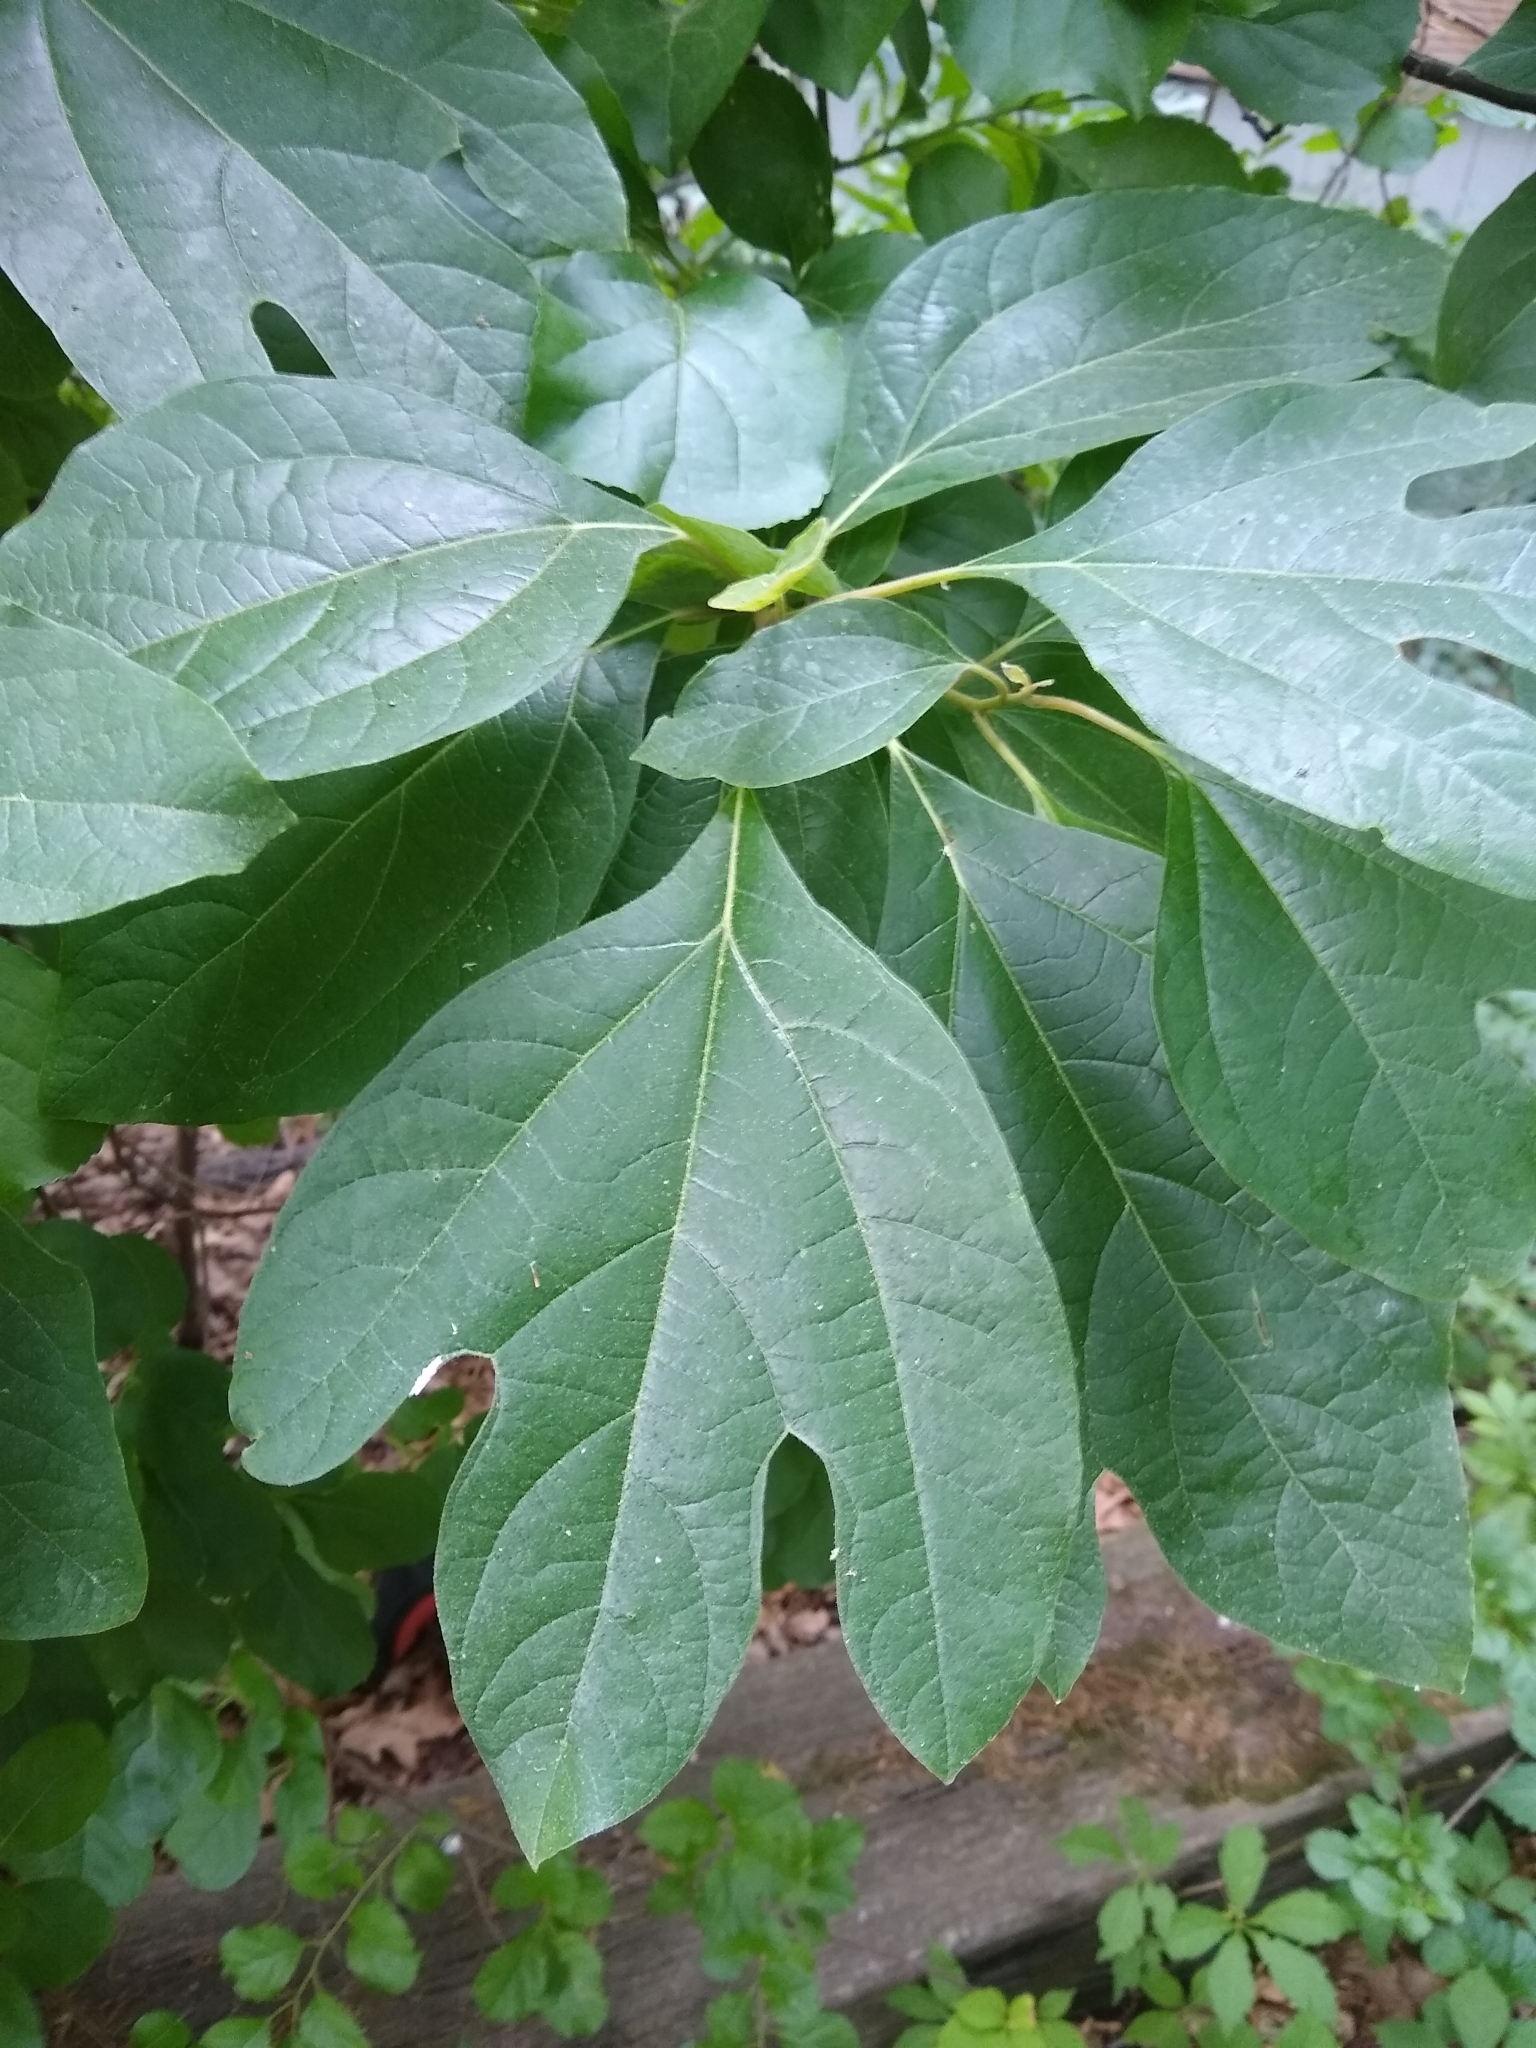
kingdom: Plantae
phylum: Tracheophyta
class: Magnoliopsida
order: Laurales
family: Lauraceae
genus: Sassafras
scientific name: Sassafras albidum
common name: Sassafras
